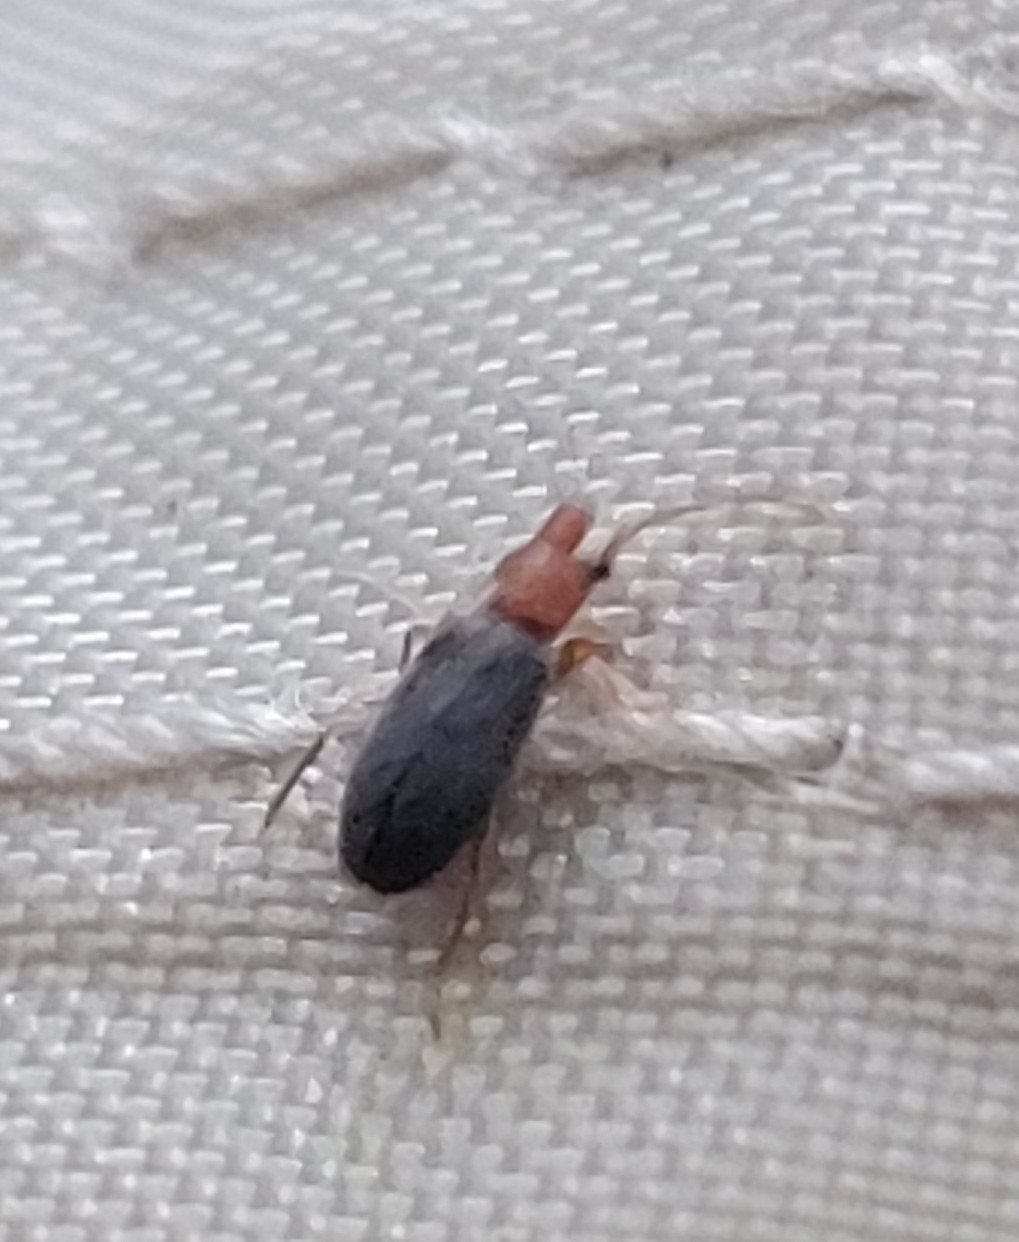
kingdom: Animalia
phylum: Arthropoda
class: Insecta
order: Coleoptera
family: Anthicidae
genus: Notoxus
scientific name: Notoxus murinipennis
